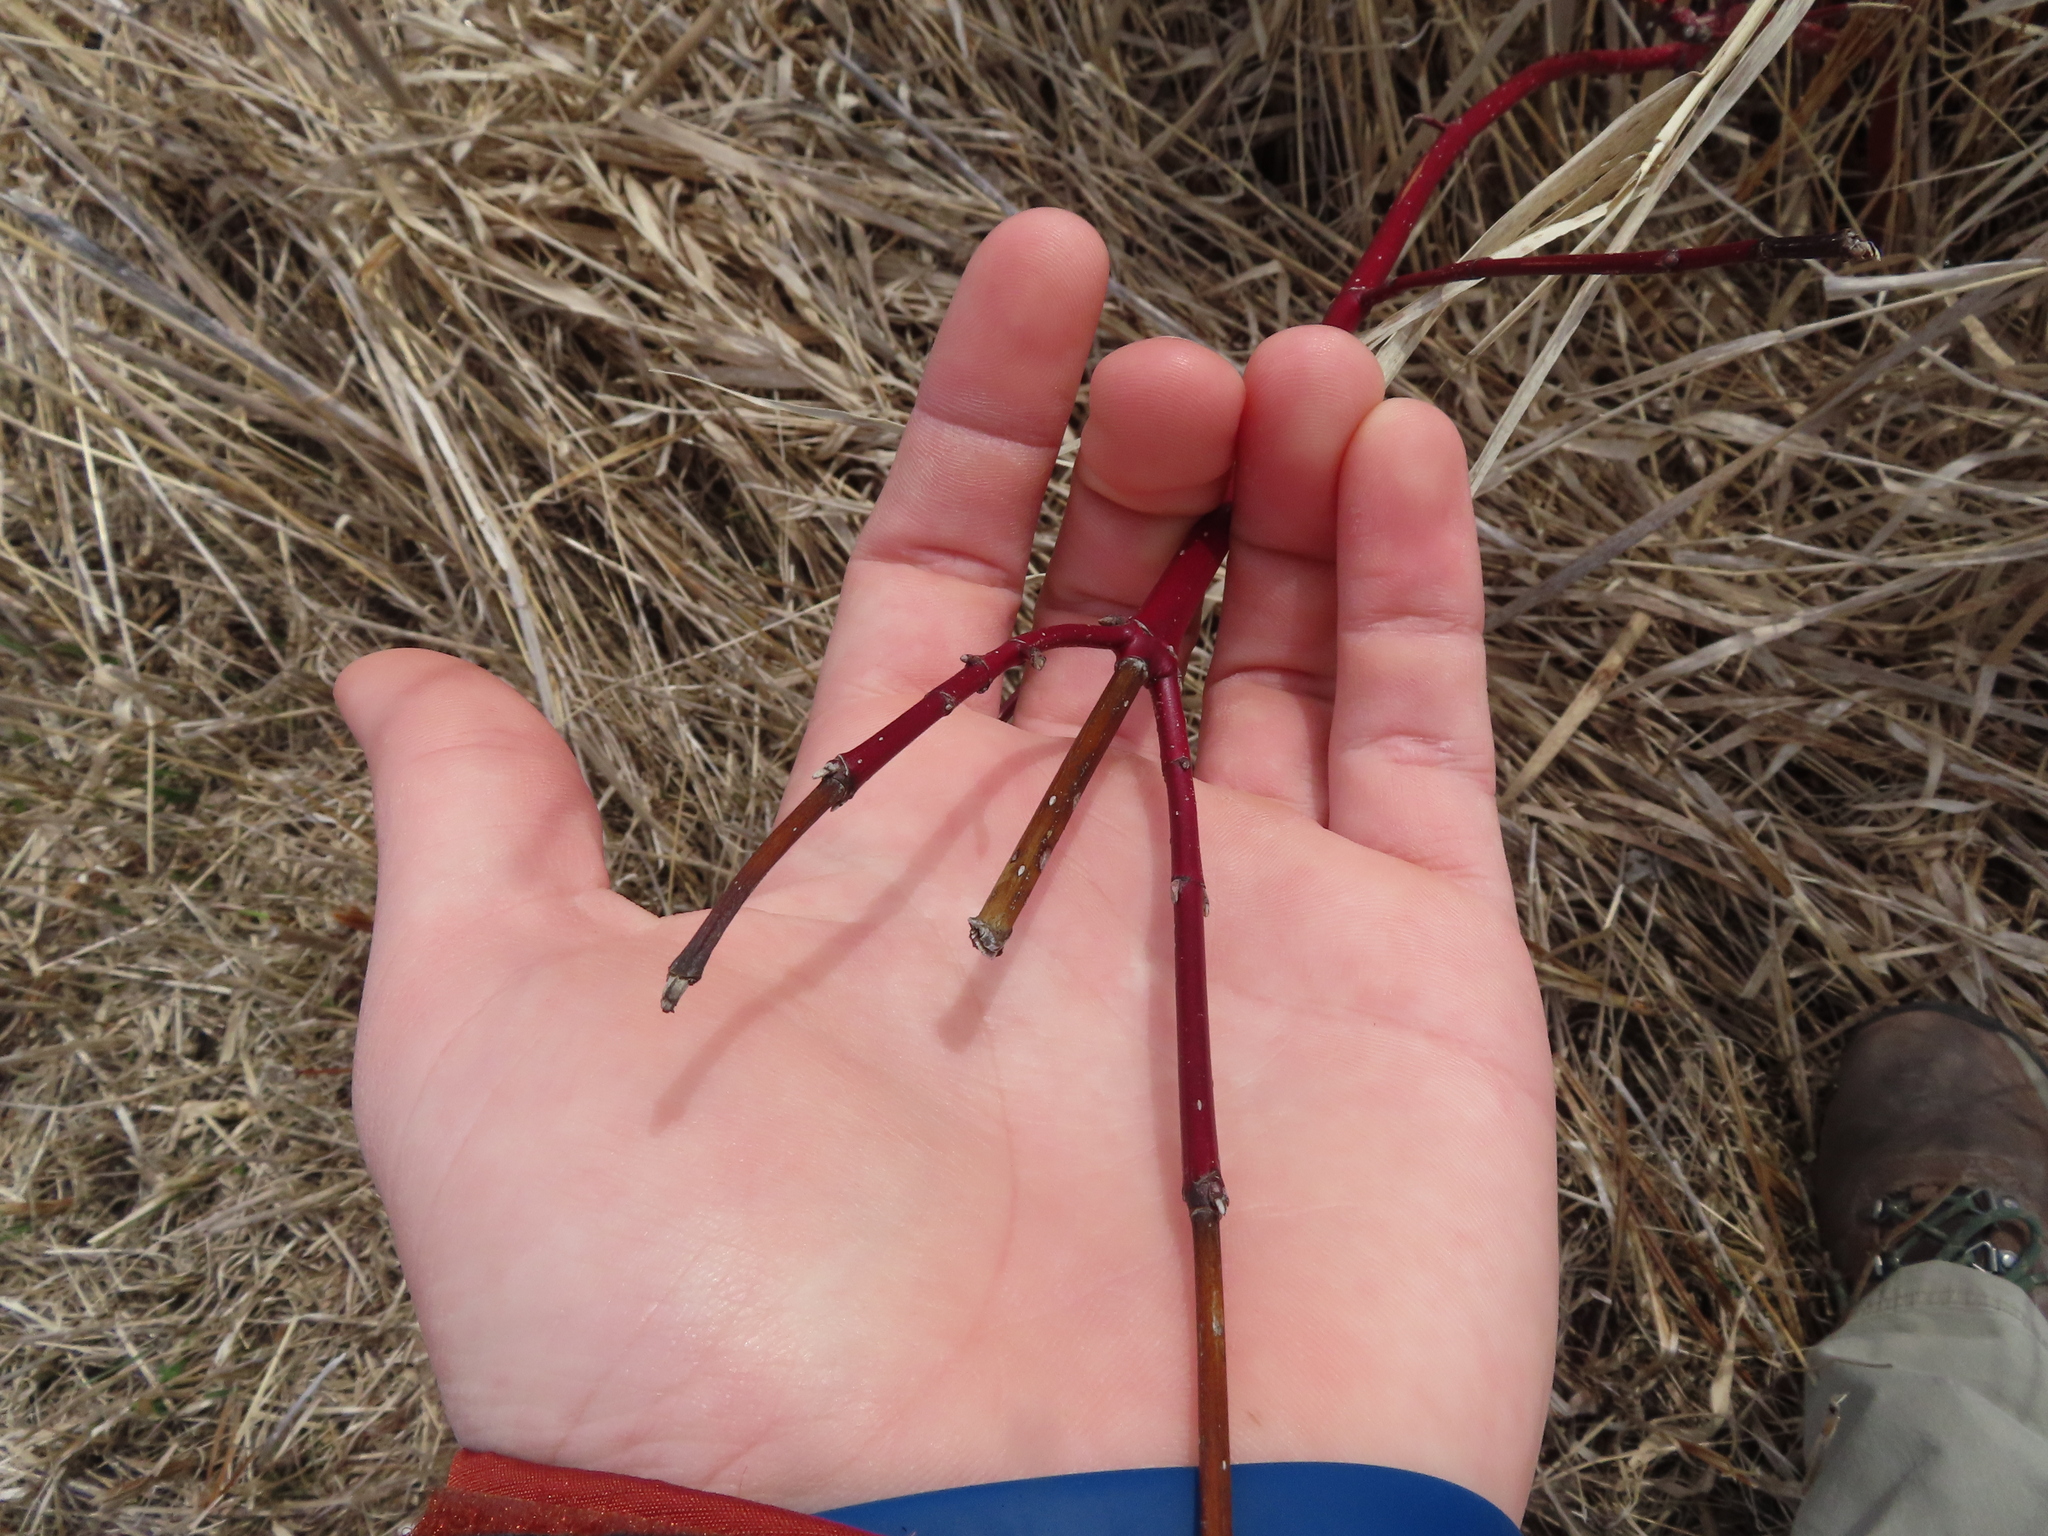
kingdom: Plantae
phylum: Tracheophyta
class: Magnoliopsida
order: Cornales
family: Cornaceae
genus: Cornus
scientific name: Cornus sericea
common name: Red-osier dogwood
